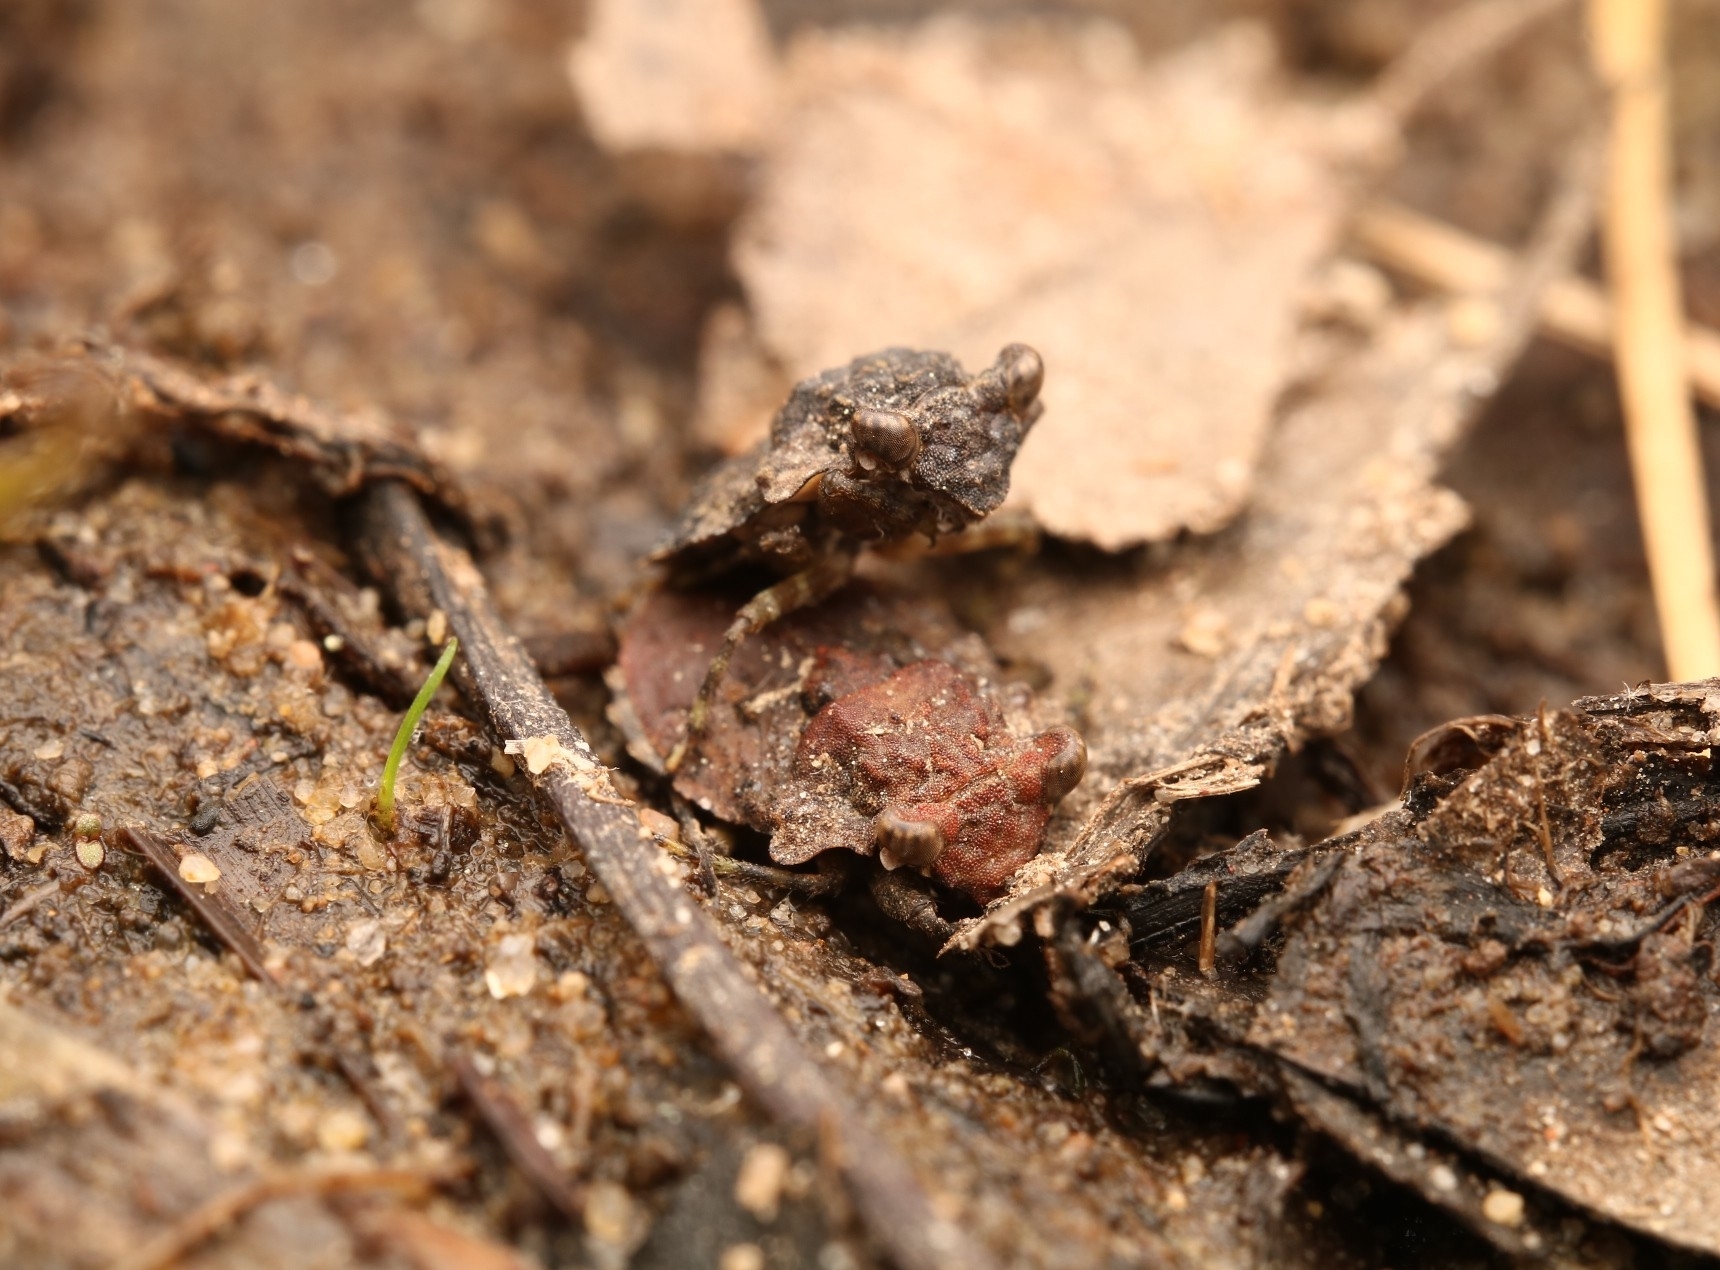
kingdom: Animalia
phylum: Arthropoda
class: Insecta
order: Hemiptera
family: Gelastocoridae
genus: Gelastocoris
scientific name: Gelastocoris oculatus
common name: Toad bug
